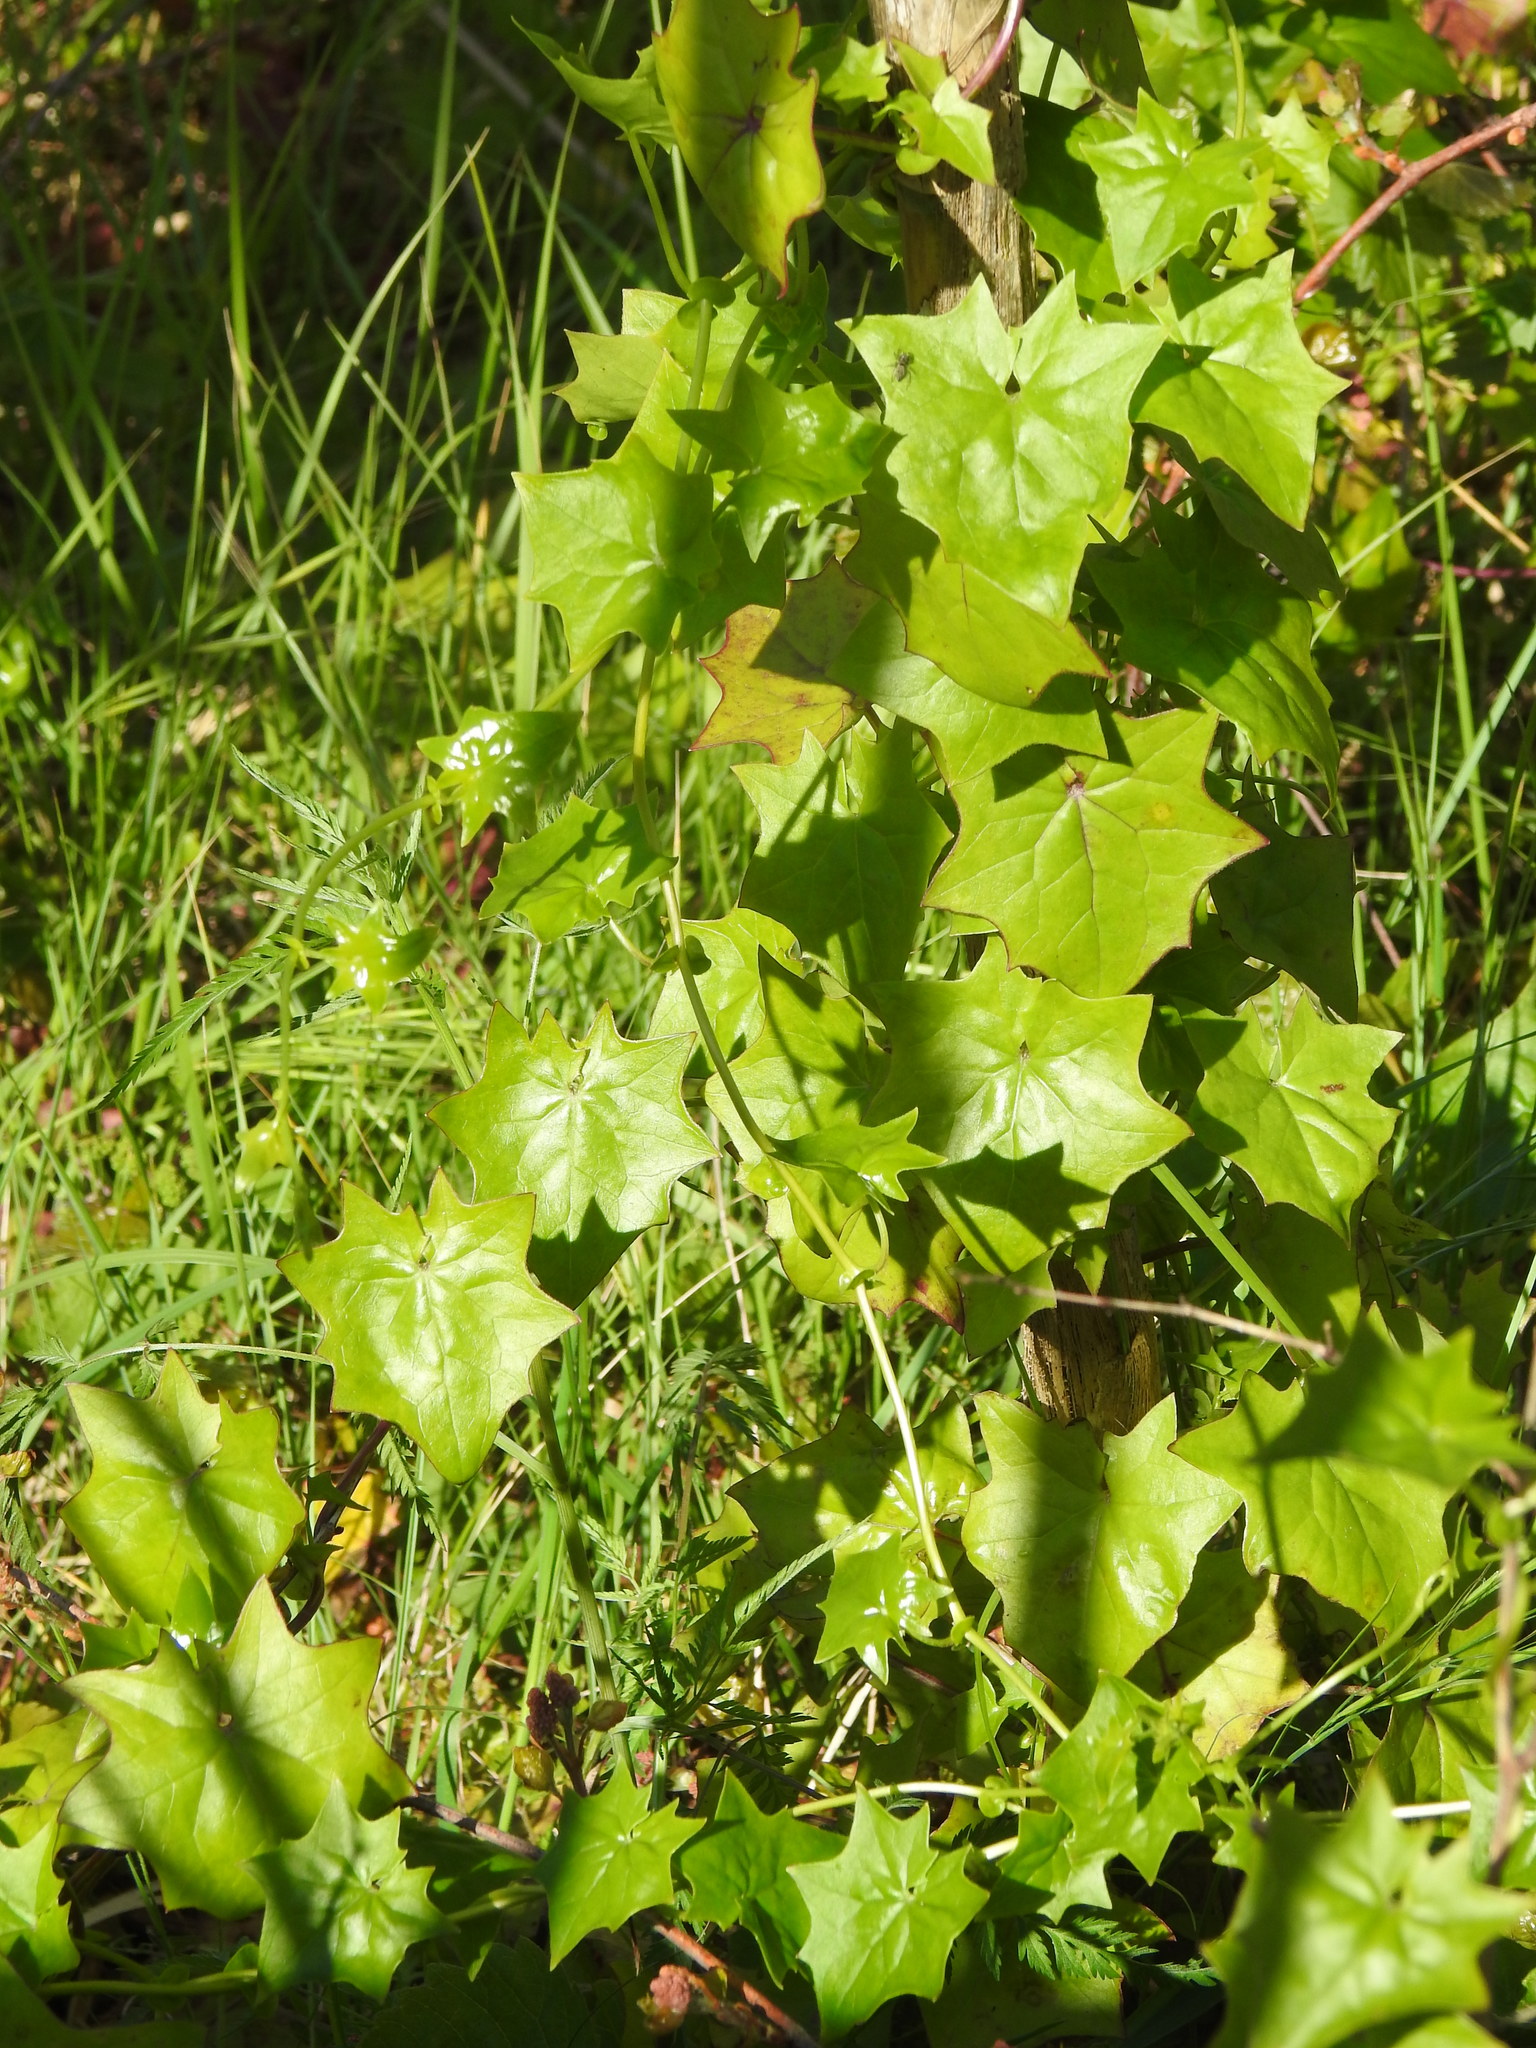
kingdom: Plantae
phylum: Tracheophyta
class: Magnoliopsida
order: Asterales
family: Asteraceae
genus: Delairea
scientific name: Delairea odorata
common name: Cape-ivy
